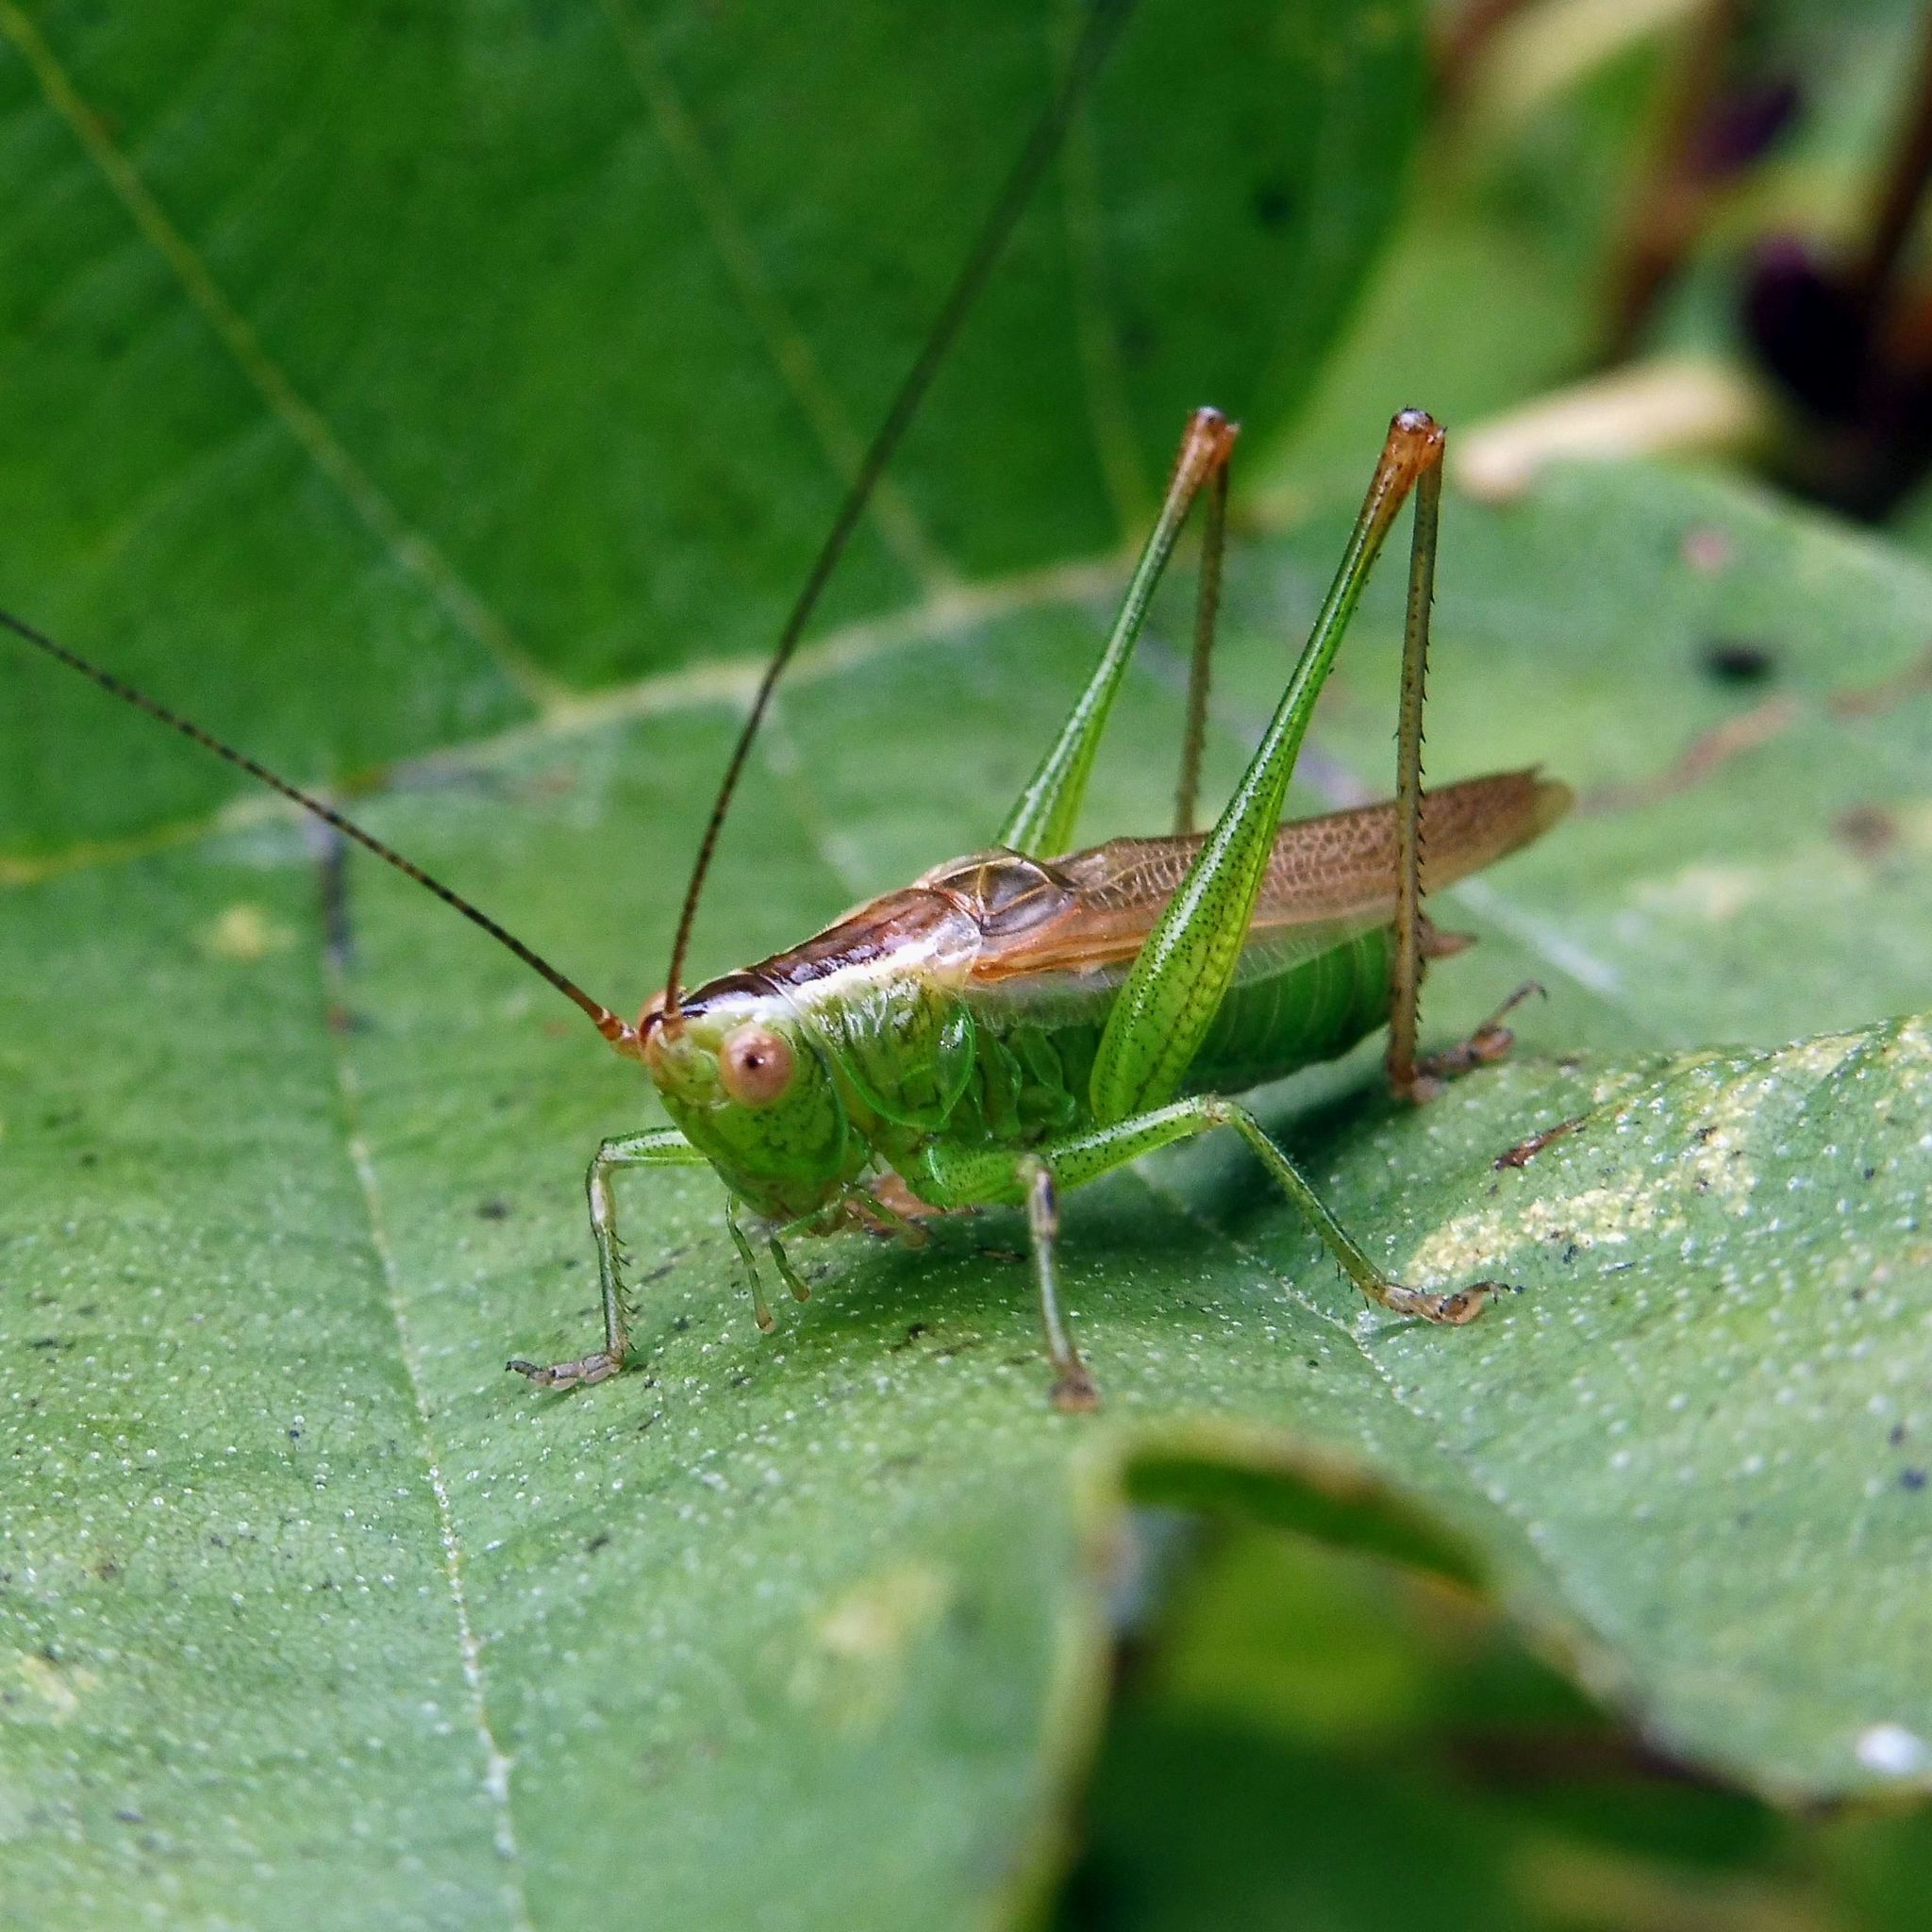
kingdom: Animalia
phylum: Arthropoda
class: Insecta
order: Orthoptera
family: Tettigoniidae
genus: Conocephalus
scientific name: Conocephalus fuscus
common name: Long-winged conehead
